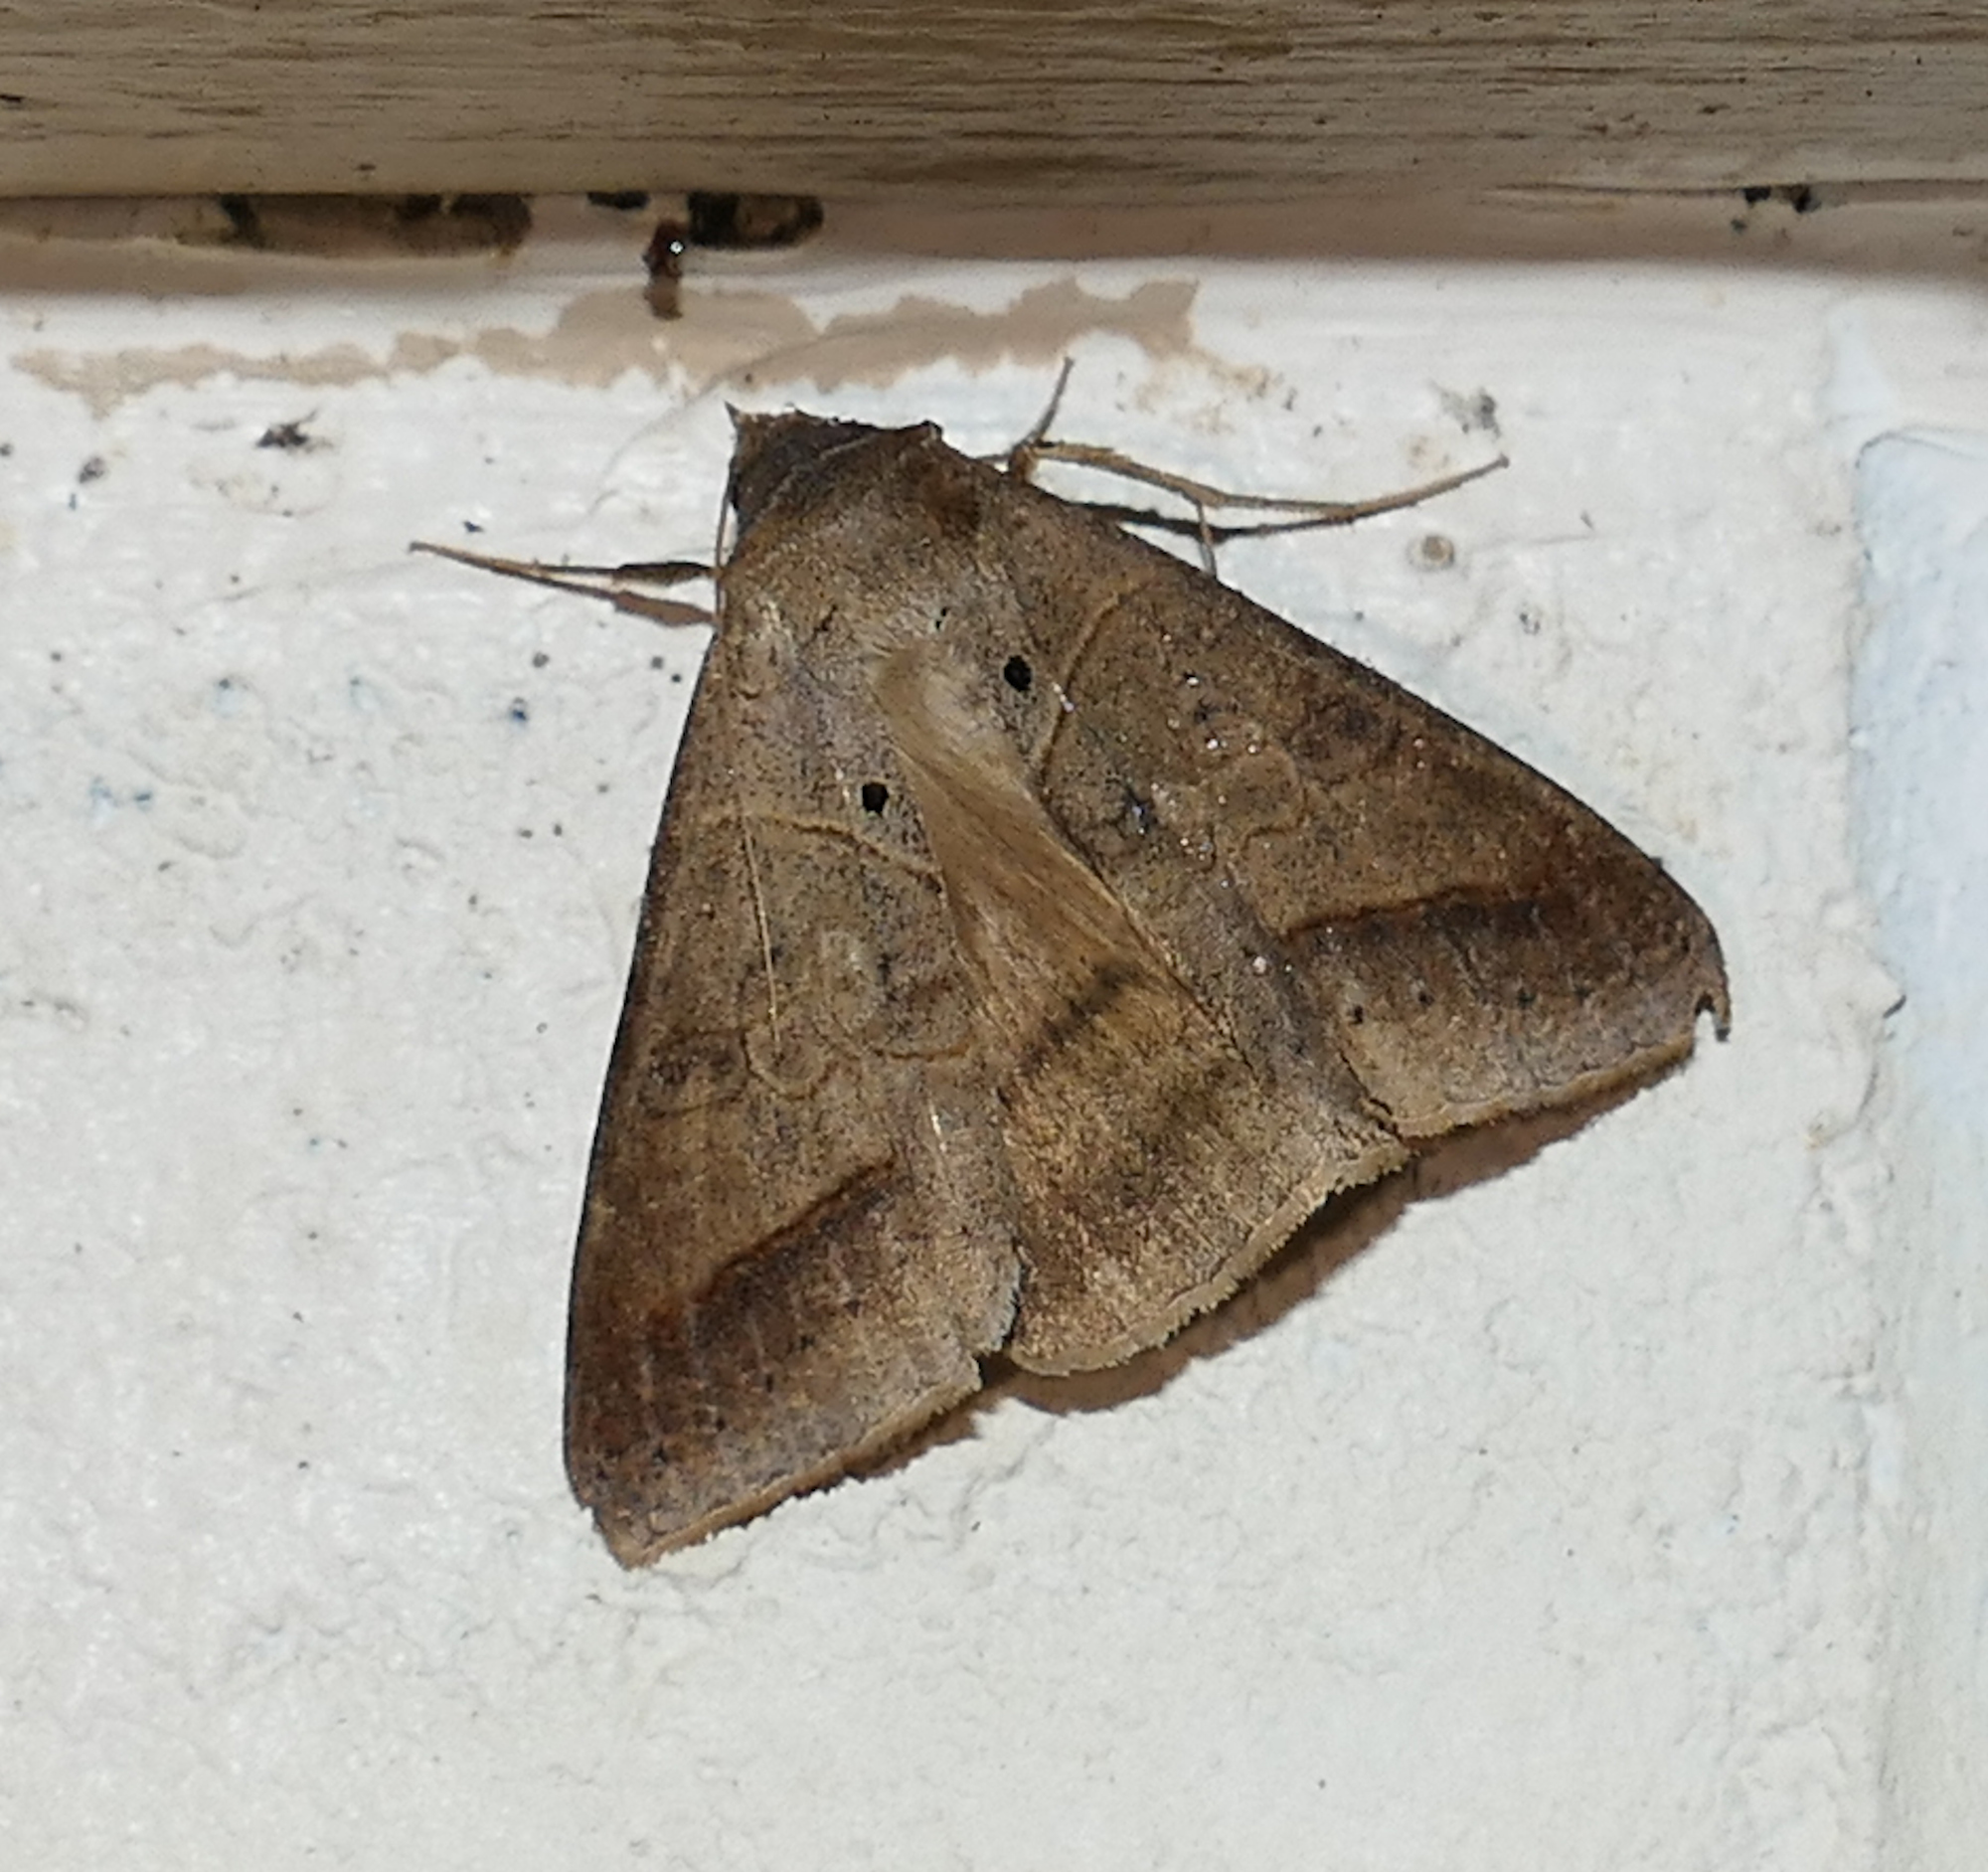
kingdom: Animalia
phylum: Arthropoda
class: Insecta
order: Lepidoptera
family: Erebidae
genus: Mocis
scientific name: Mocis marcida
